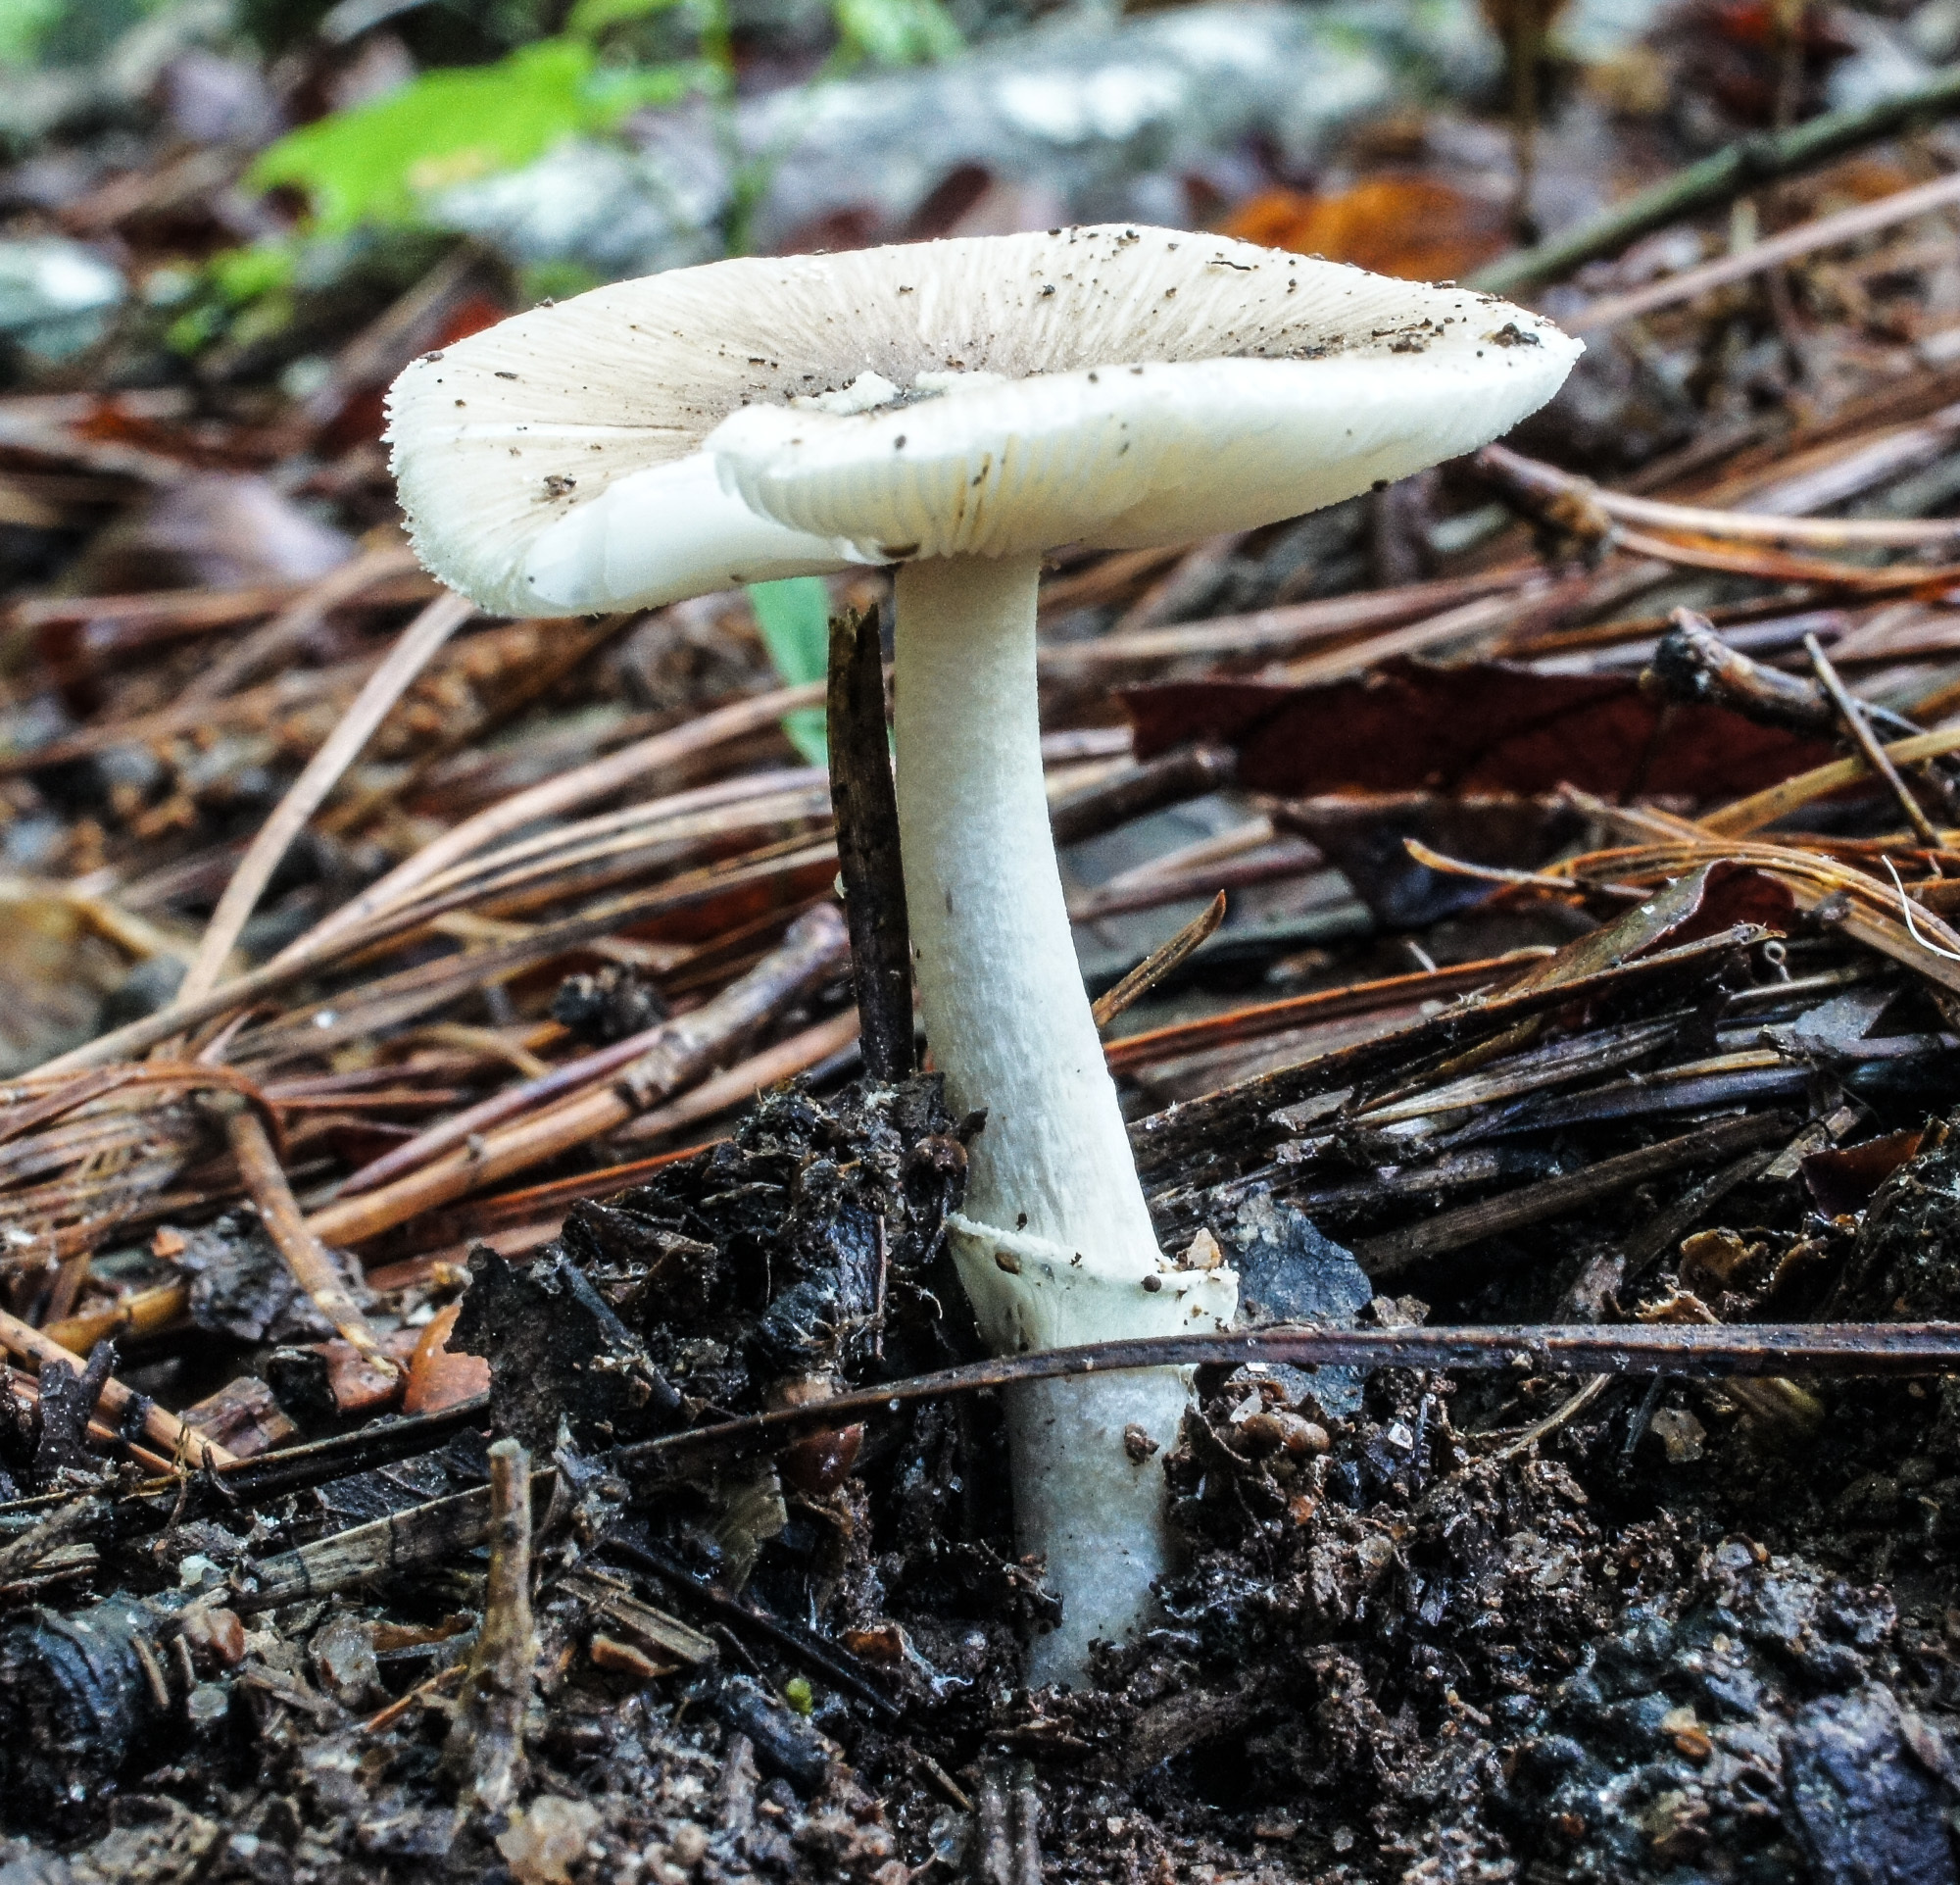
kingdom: Fungi
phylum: Basidiomycota
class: Agaricomycetes
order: Agaricales
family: Amanitaceae
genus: Amanita
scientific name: Amanita solaniolens
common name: Old potato amanita
